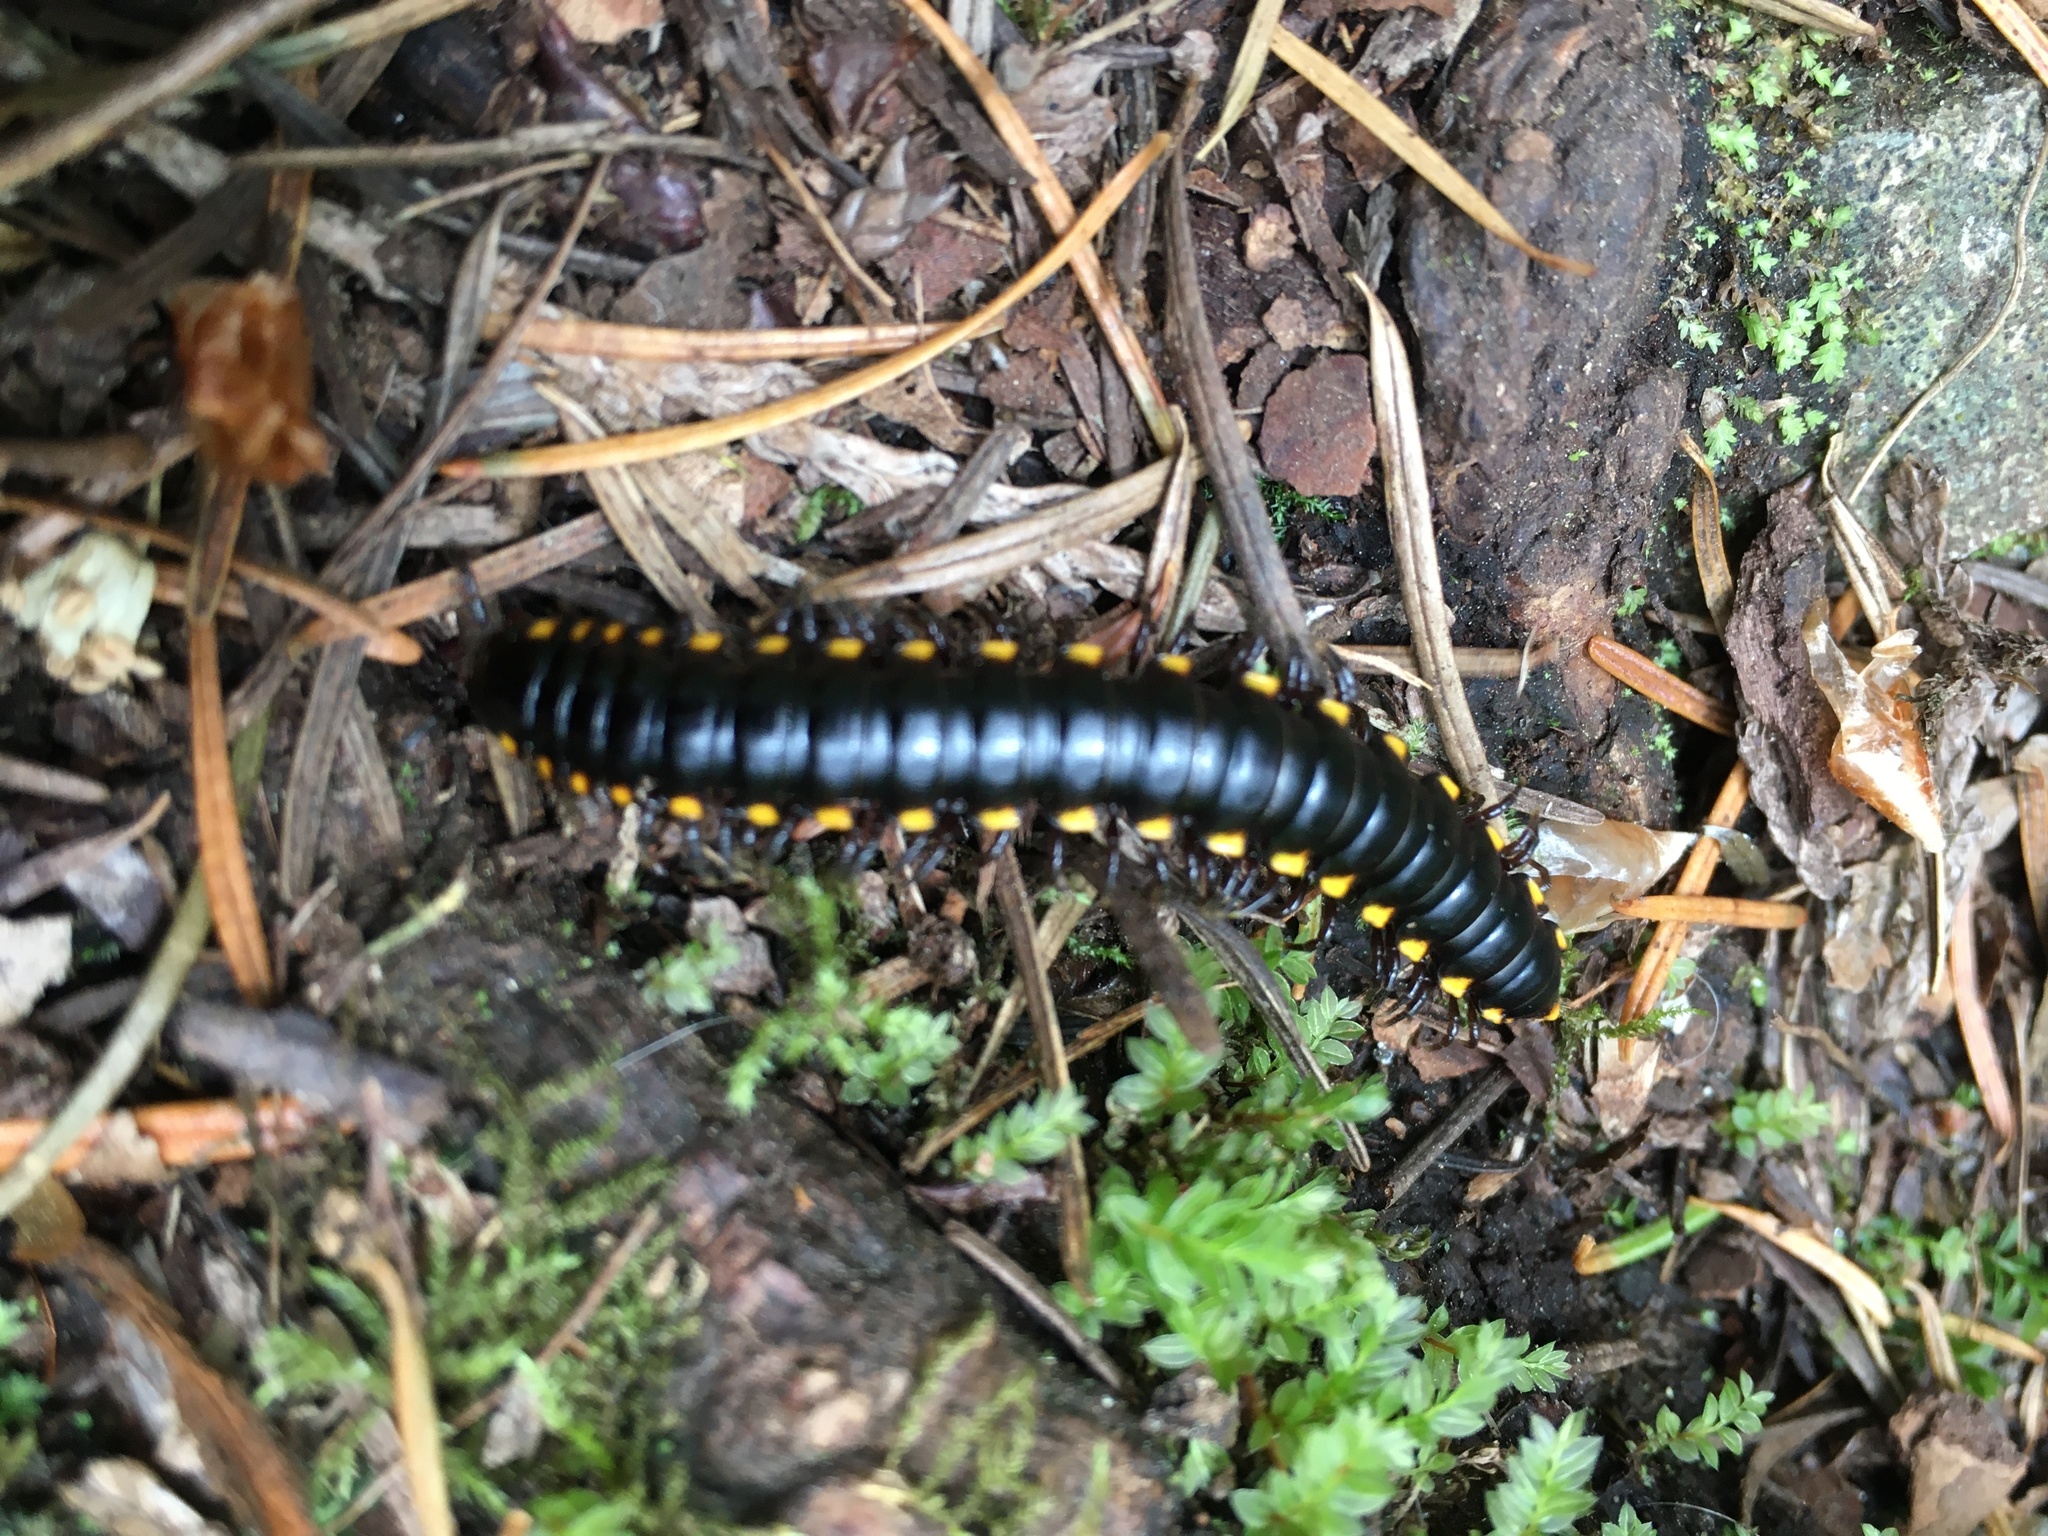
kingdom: Animalia
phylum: Arthropoda
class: Diplopoda
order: Polydesmida
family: Xystodesmidae
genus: Harpaphe
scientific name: Harpaphe haydeniana
